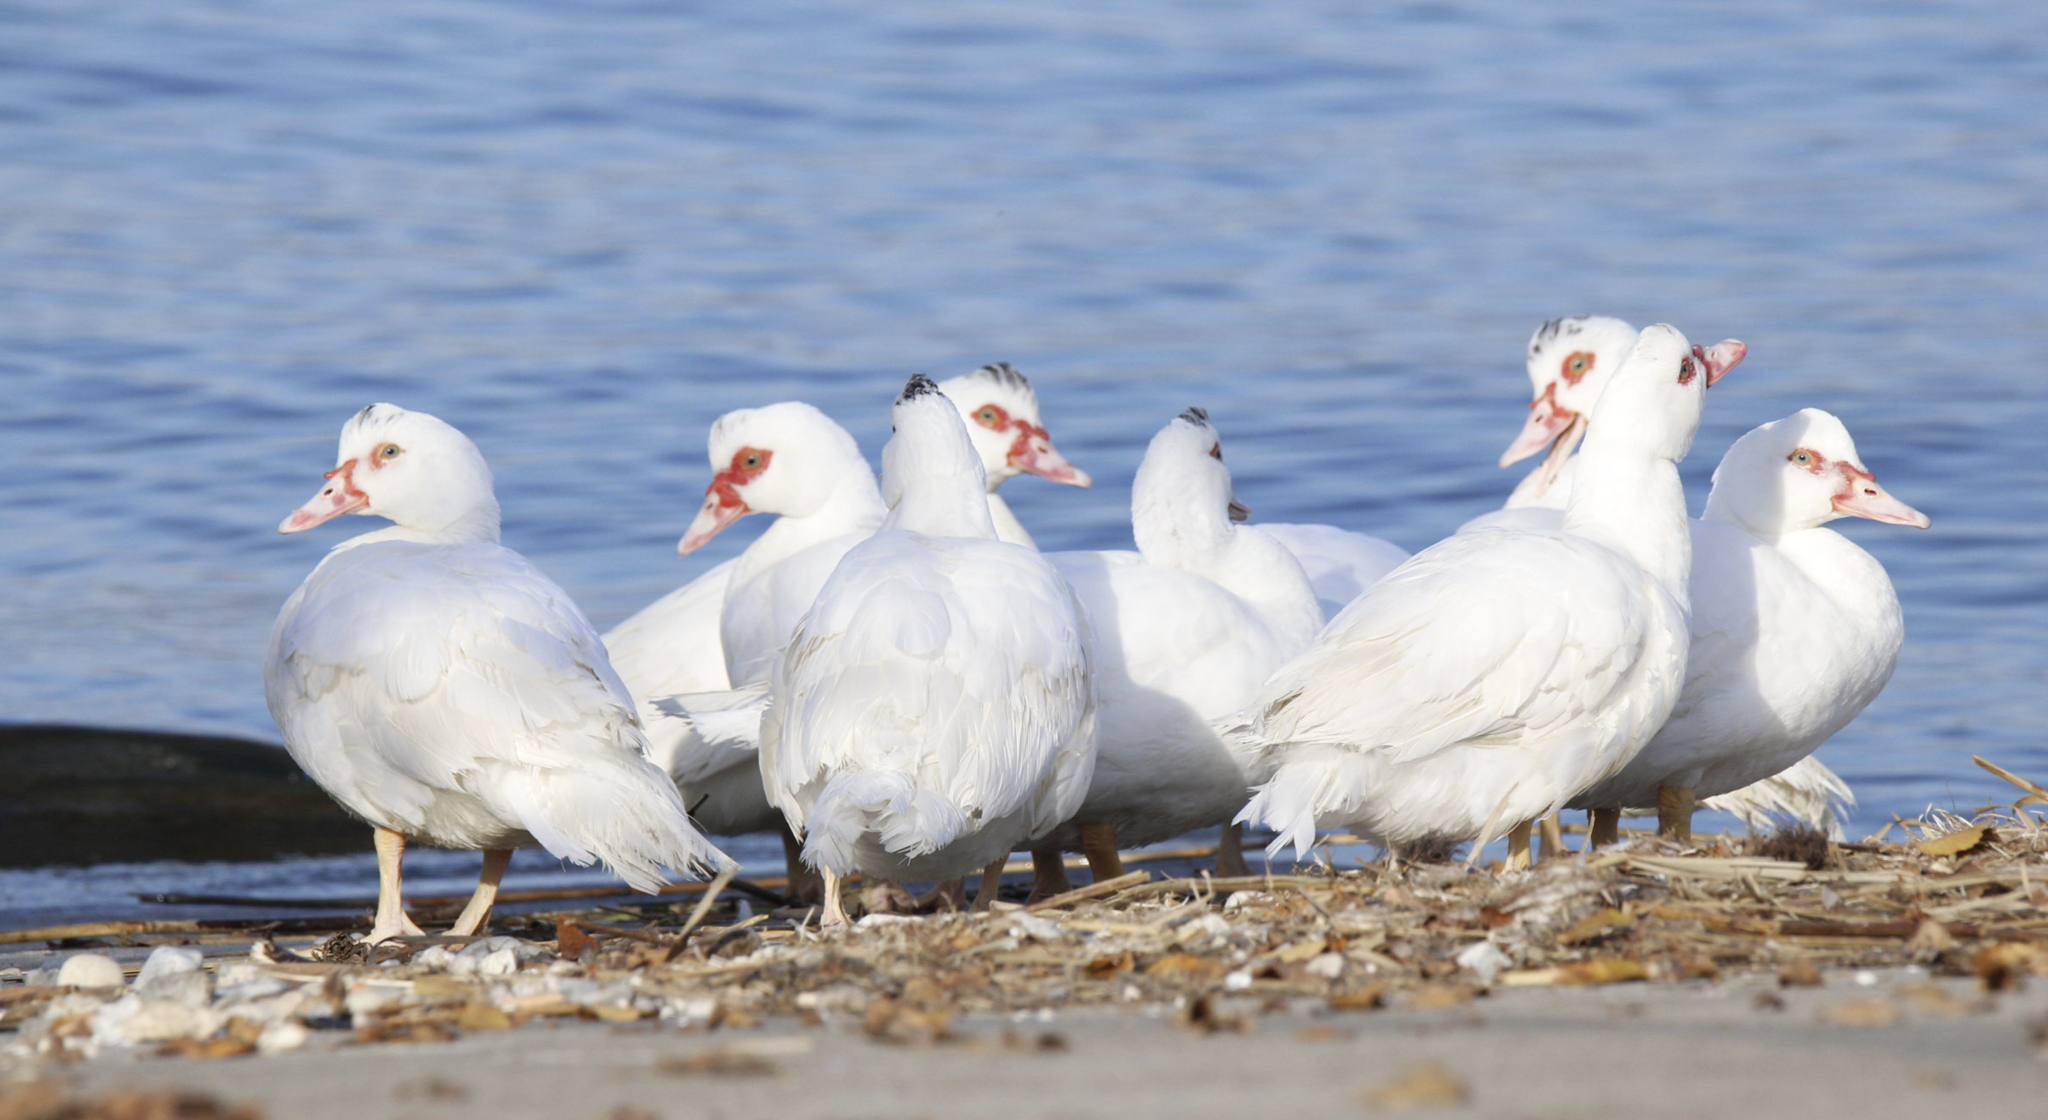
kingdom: Animalia
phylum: Chordata
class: Aves
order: Anseriformes
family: Anatidae
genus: Cairina
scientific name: Cairina moschata
